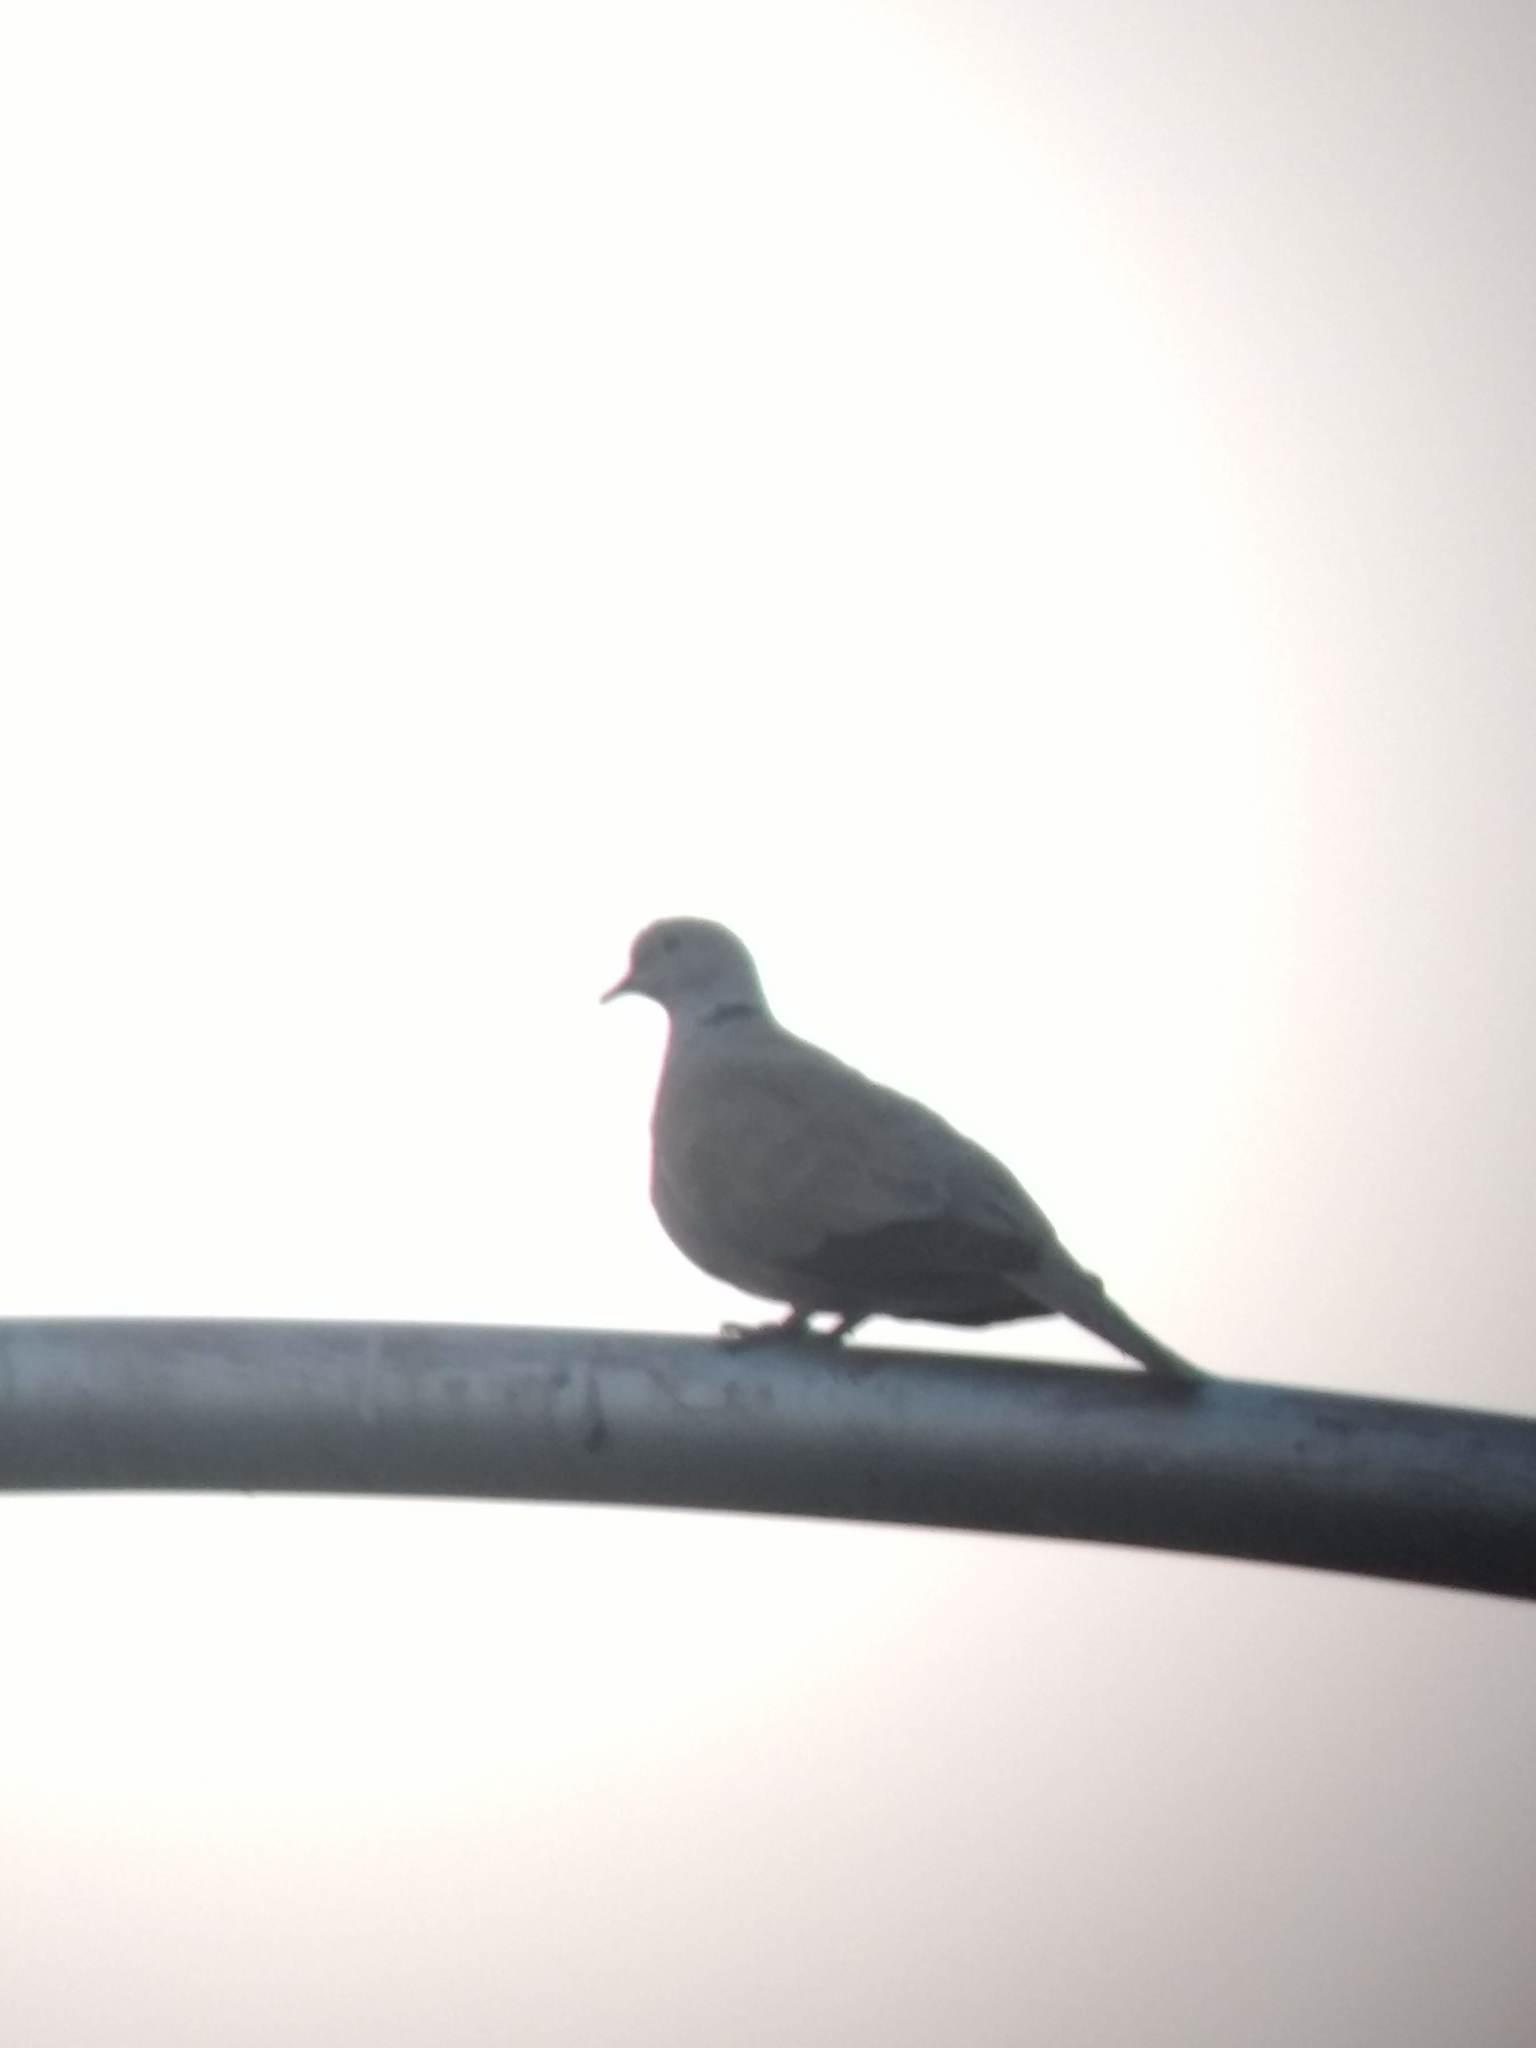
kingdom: Animalia
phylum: Chordata
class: Aves
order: Columbiformes
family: Columbidae
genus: Streptopelia
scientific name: Streptopelia decaocto
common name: Eurasian collared dove
